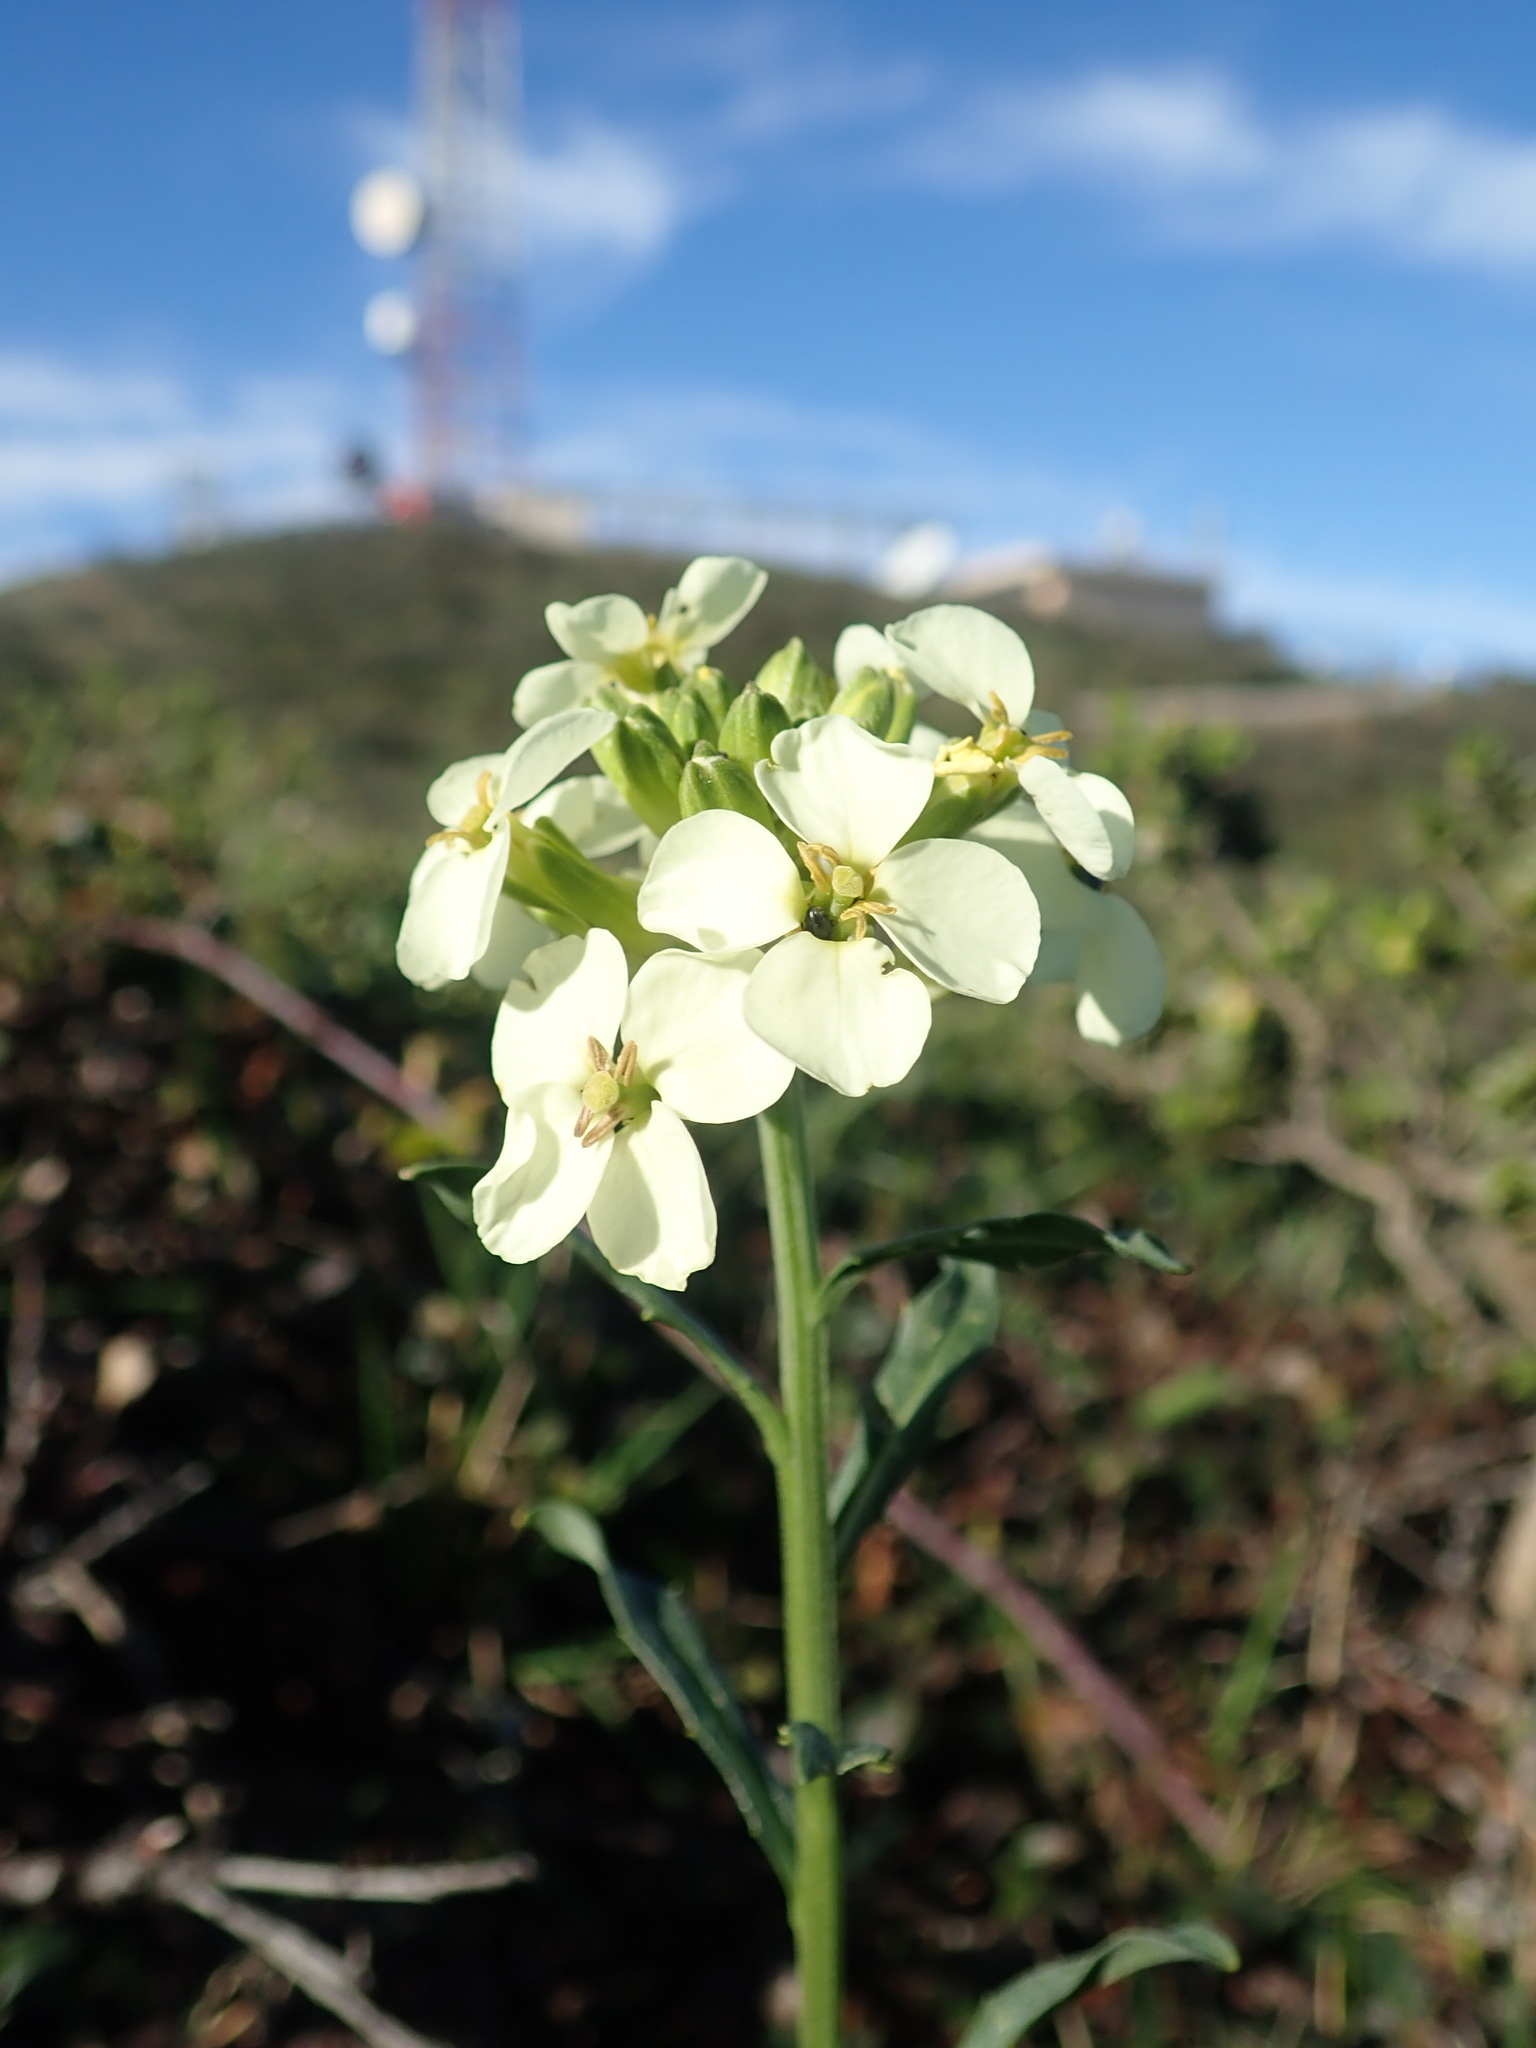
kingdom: Plantae
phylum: Tracheophyta
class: Magnoliopsida
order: Brassicales
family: Brassicaceae
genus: Erysimum
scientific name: Erysimum franciscanum
